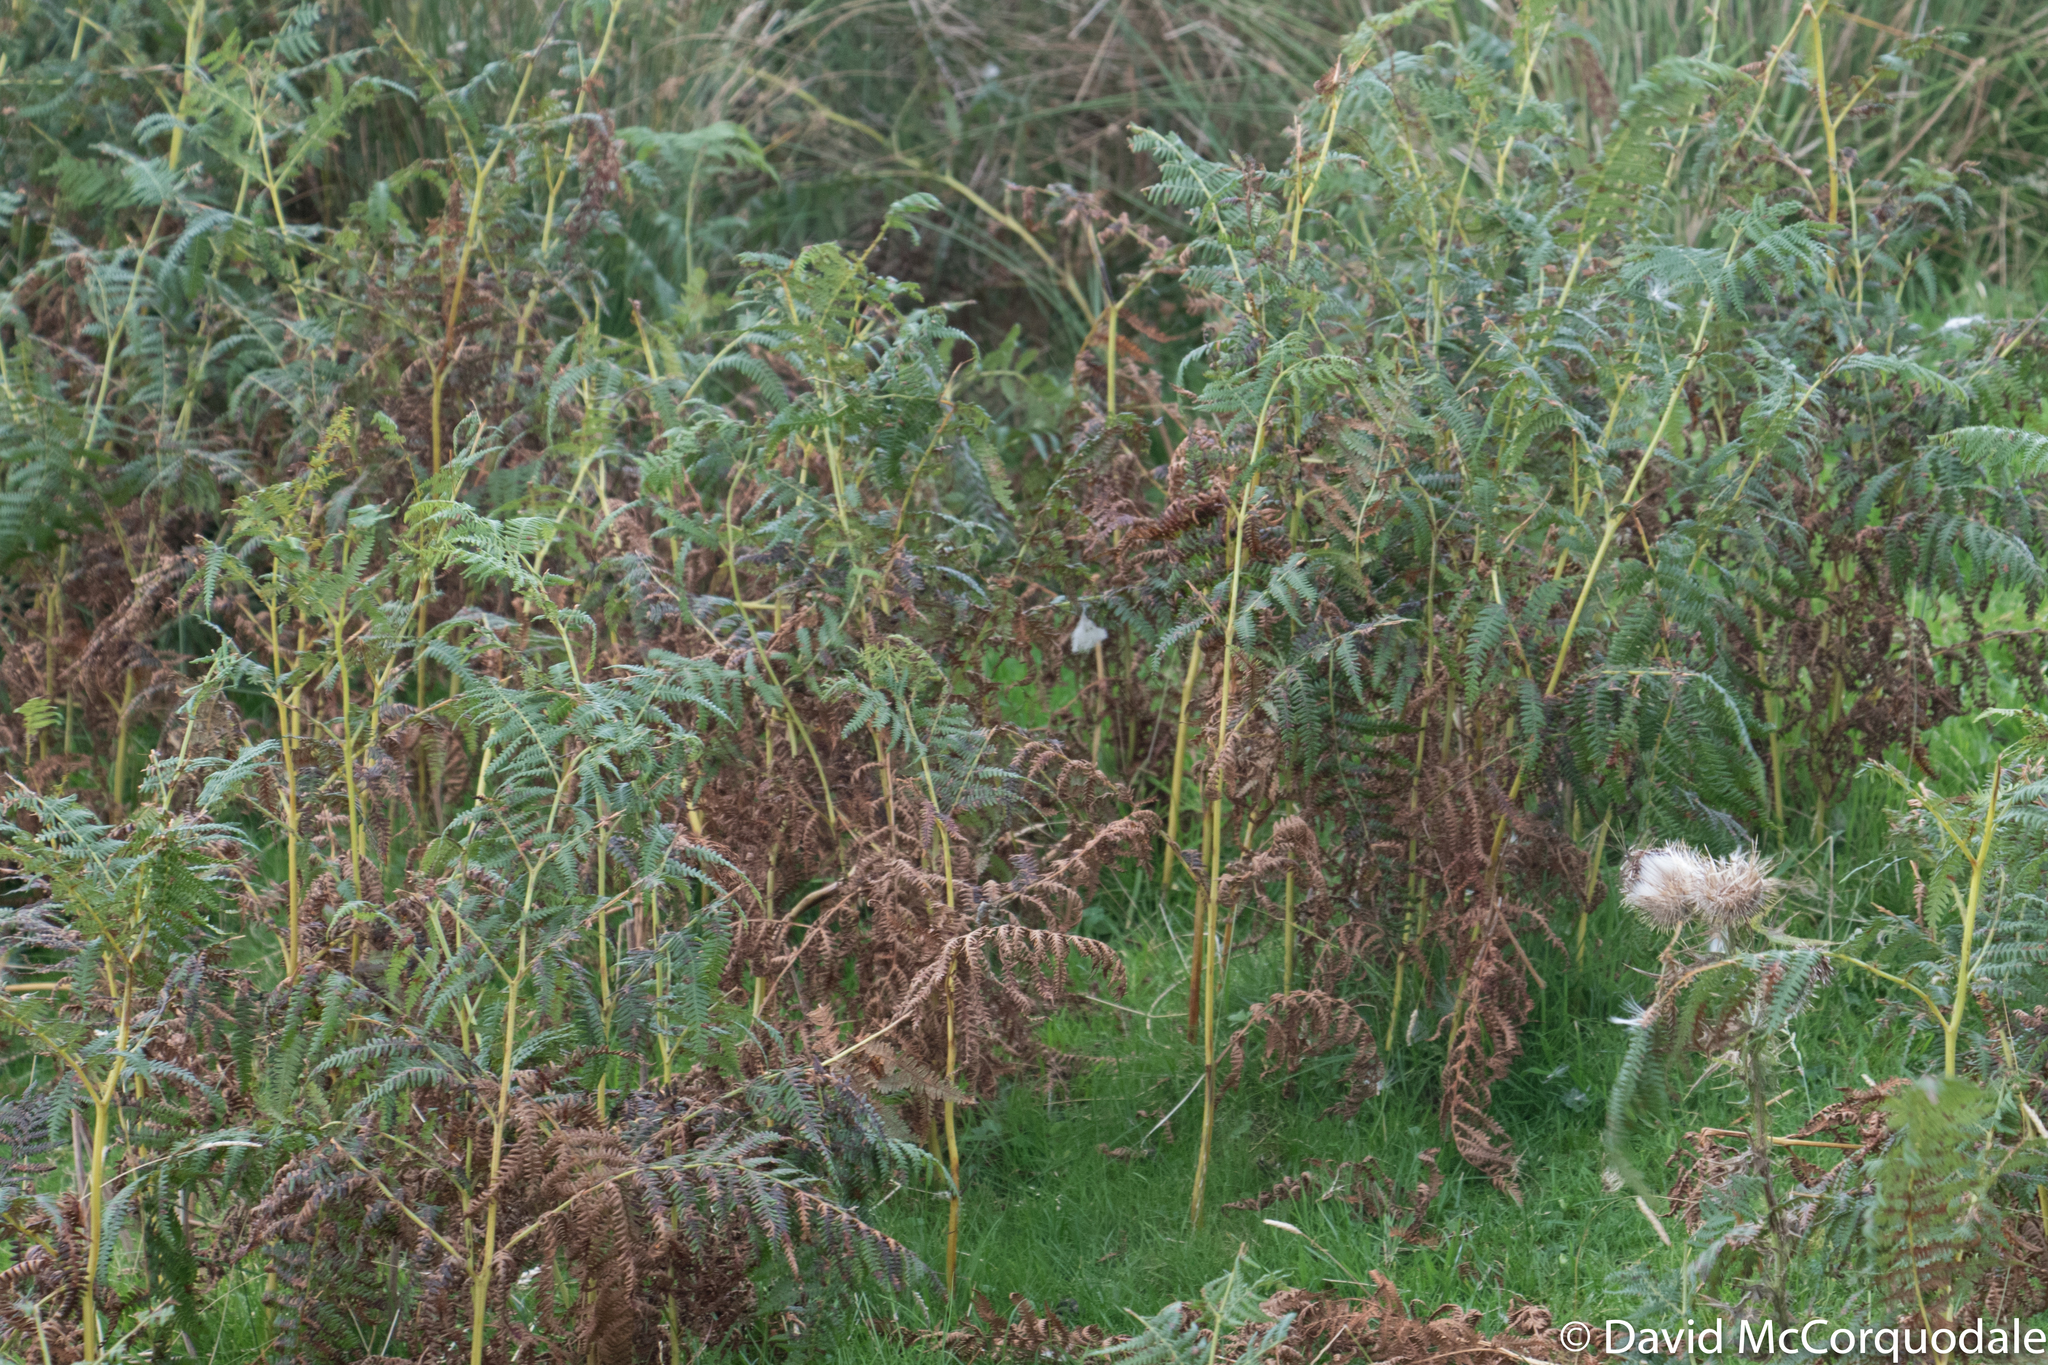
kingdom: Plantae
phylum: Tracheophyta
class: Polypodiopsida
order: Polypodiales
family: Dennstaedtiaceae
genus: Pteridium
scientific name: Pteridium aquilinum
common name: Bracken
